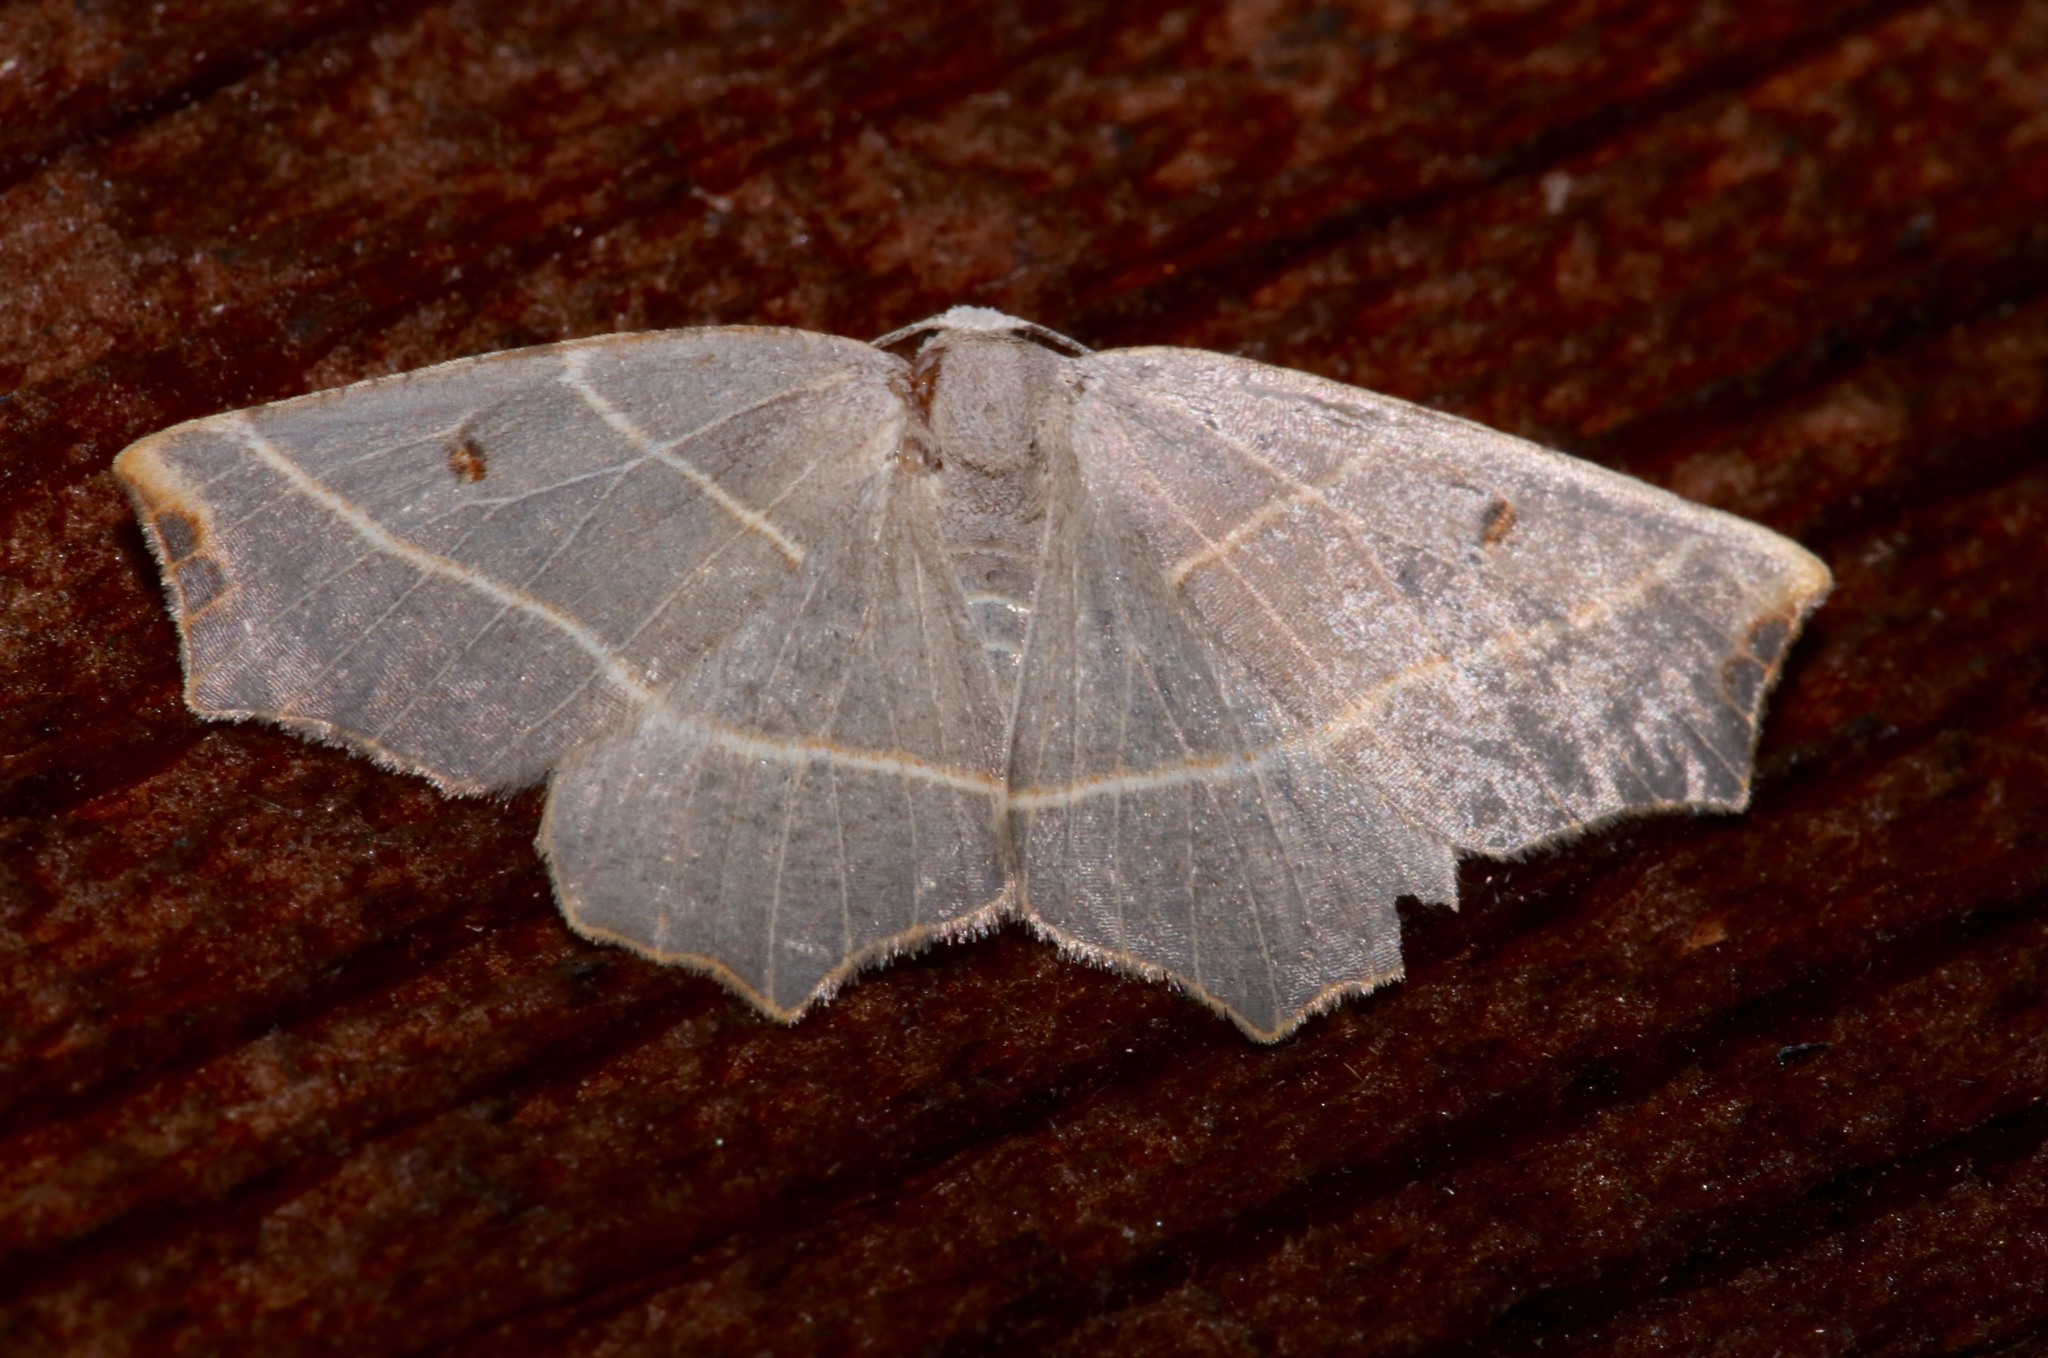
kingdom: Animalia
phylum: Arthropoda
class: Insecta
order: Lepidoptera
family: Geometridae
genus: Metanema
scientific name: Metanema inatomaria
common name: Pale metanema
